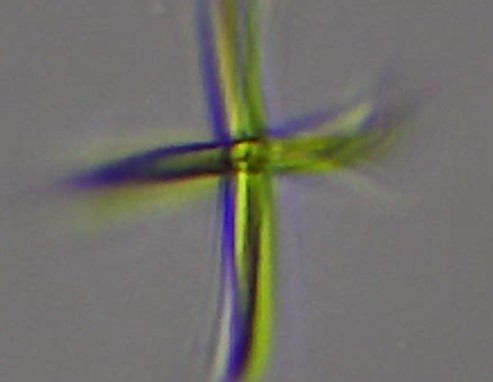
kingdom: Plantae
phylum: Chlorophyta
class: Chlorophyceae
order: Sphaeropleales
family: Selenastraceae
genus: Ankistrodesmus
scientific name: Ankistrodesmus fusiformis
